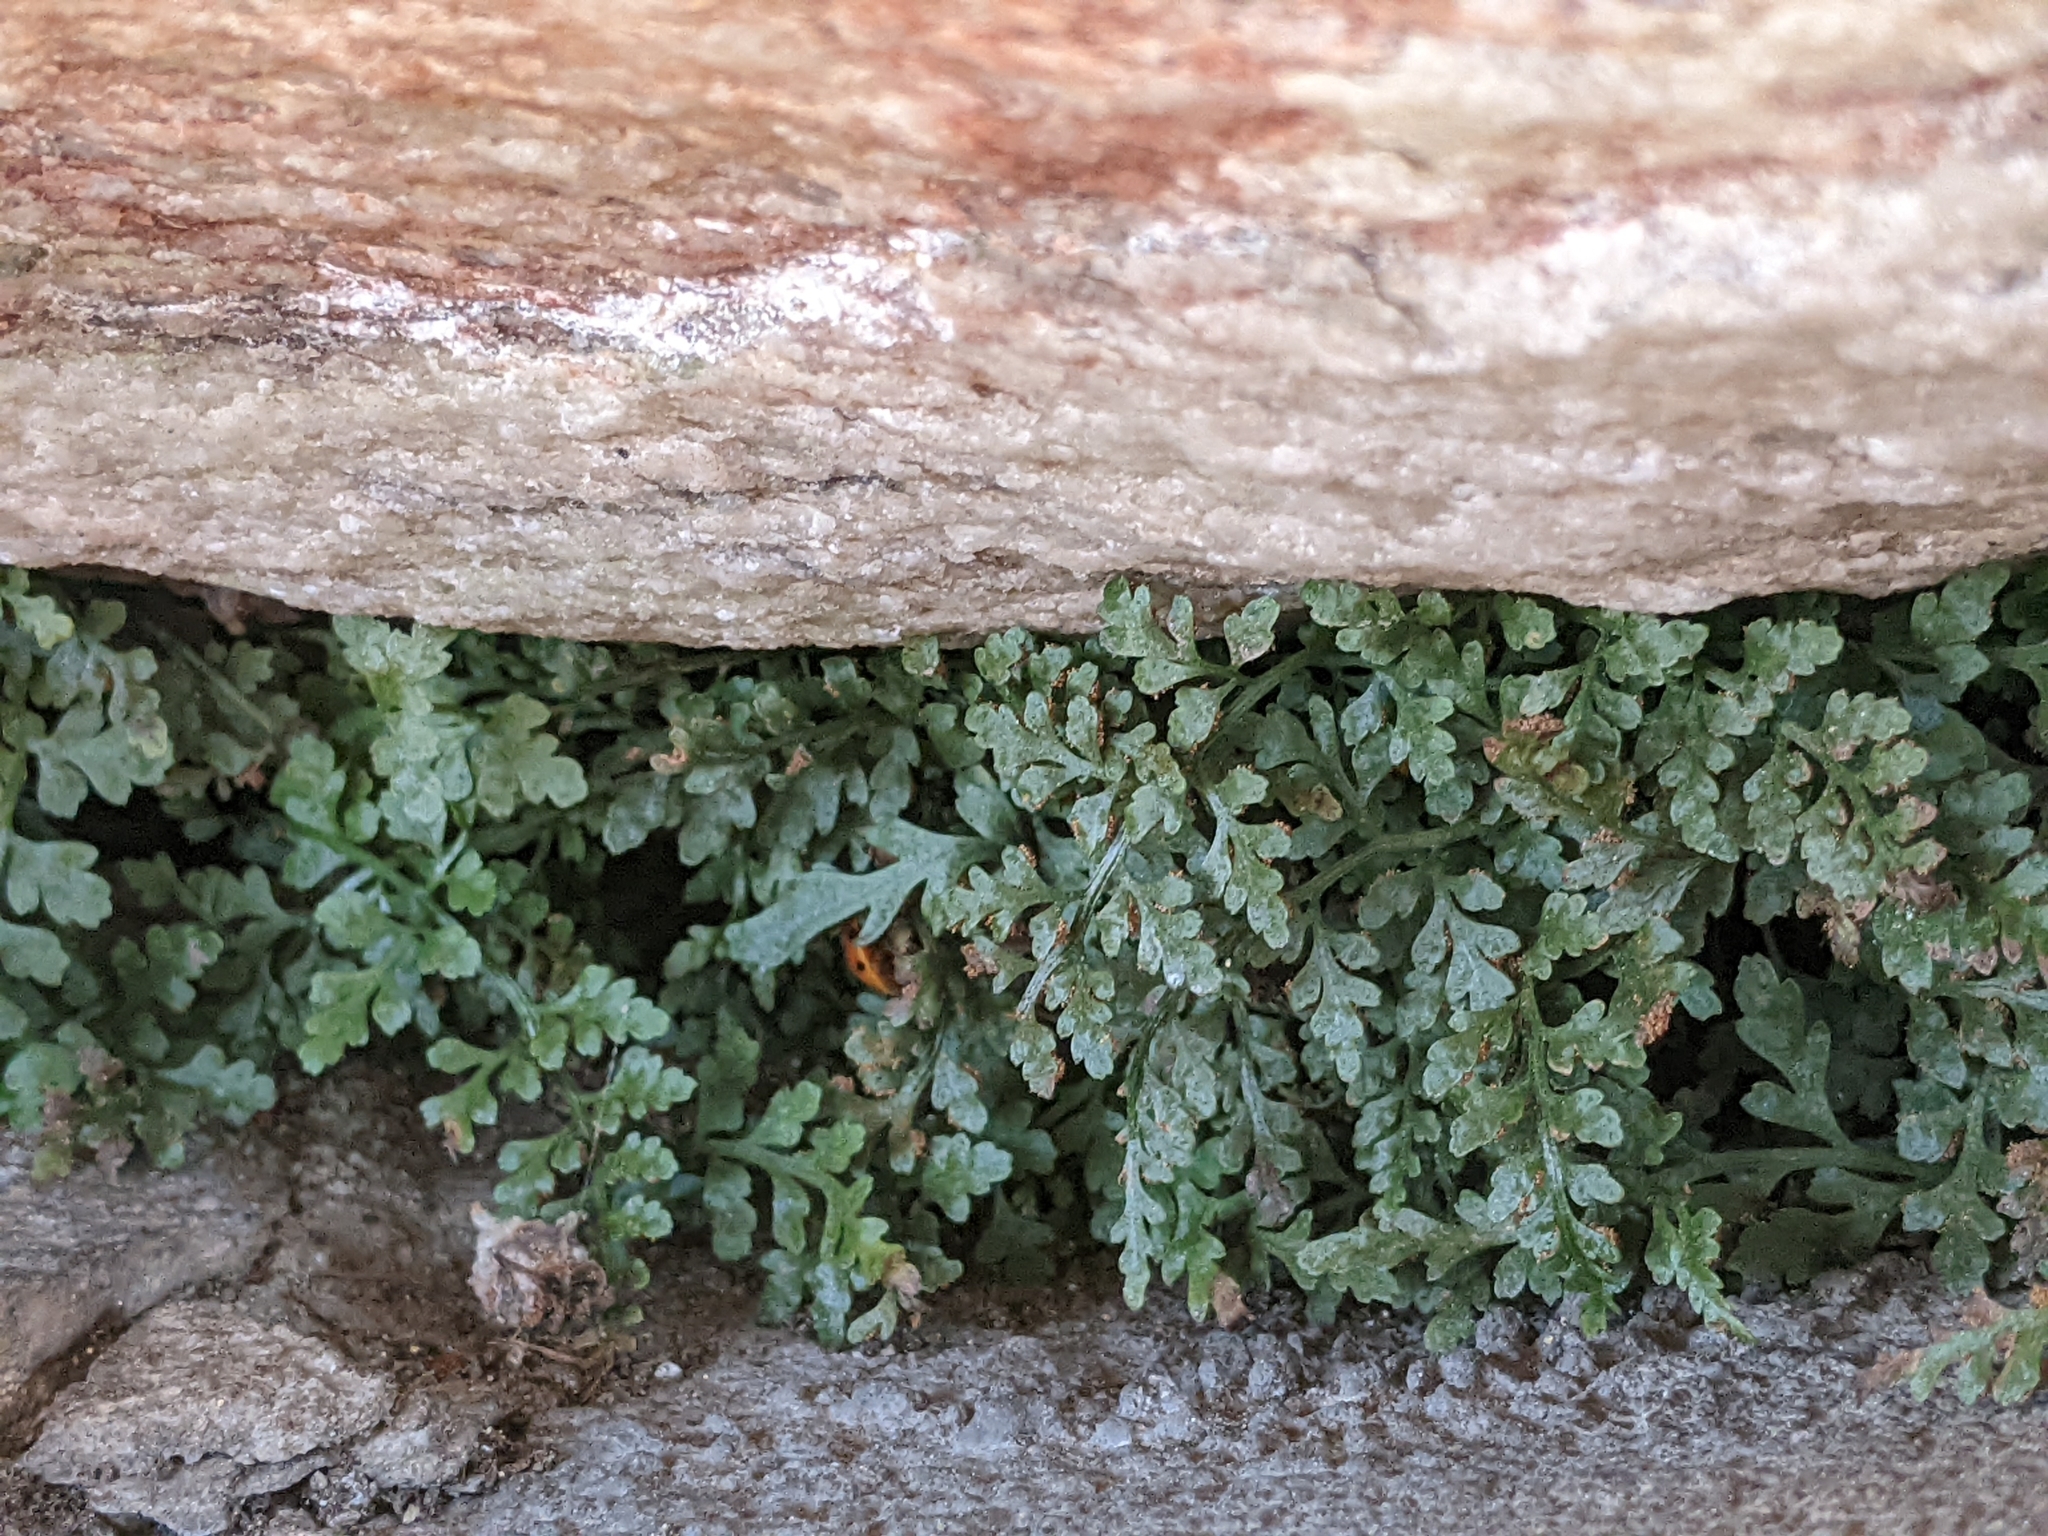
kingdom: Plantae
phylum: Tracheophyta
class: Polypodiopsida
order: Polypodiales
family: Aspleniaceae
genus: Asplenium
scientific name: Asplenium montanum
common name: Mountain spleenwort
